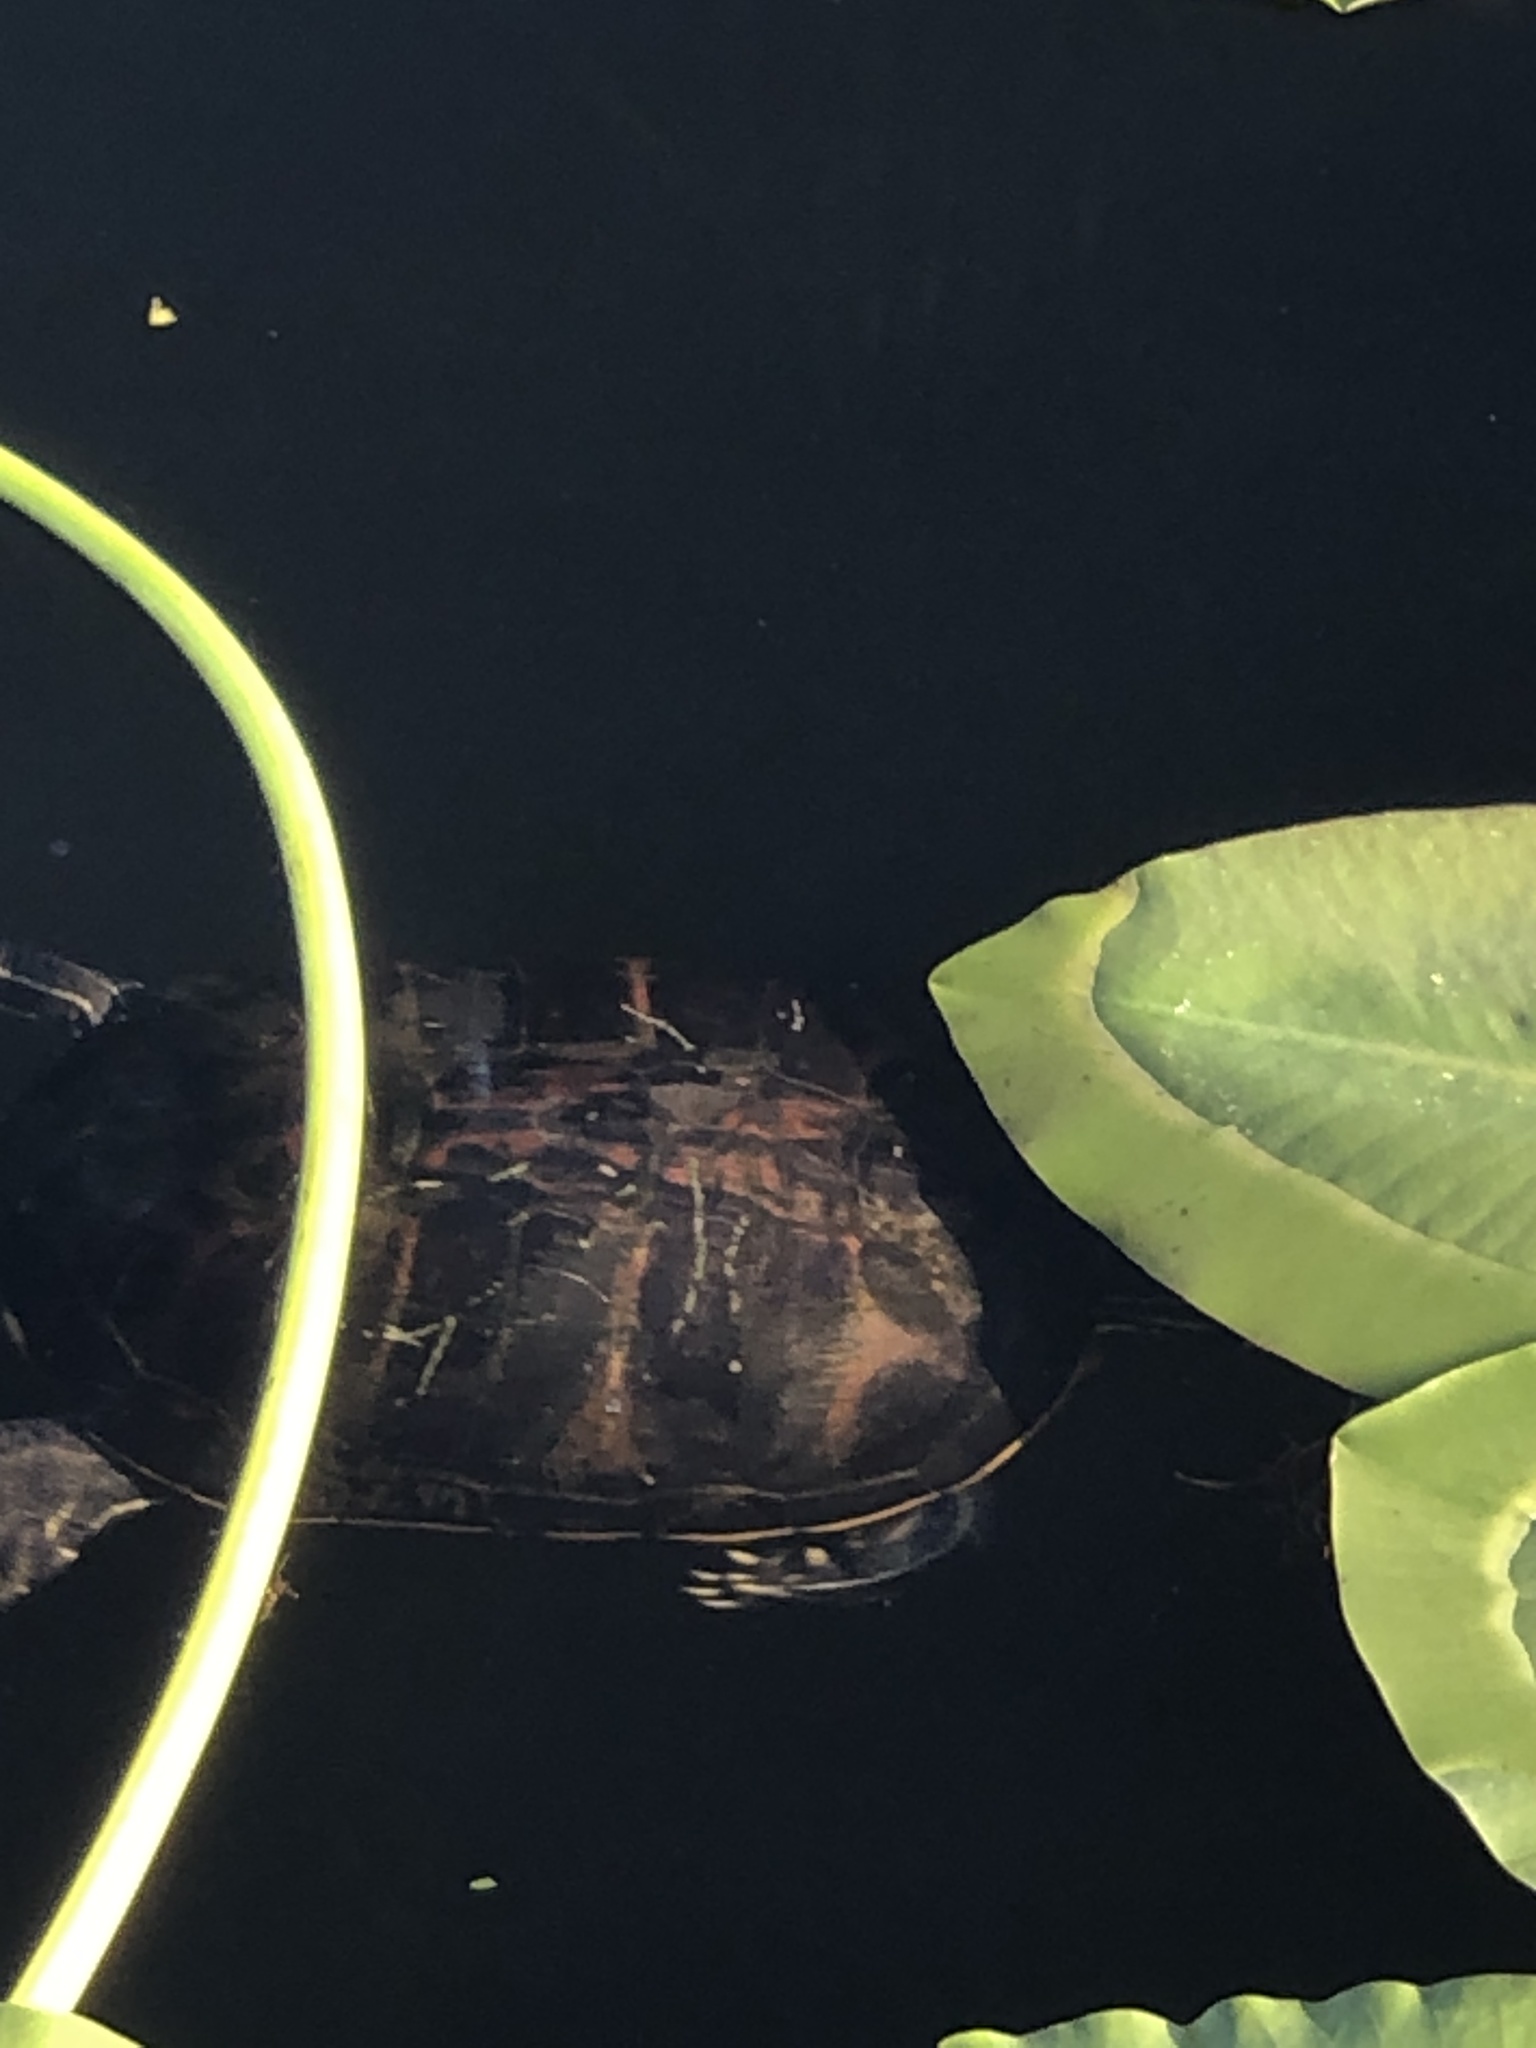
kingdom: Animalia
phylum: Chordata
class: Testudines
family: Emydidae
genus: Pseudemys
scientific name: Pseudemys nelsoni
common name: Florida red-bellied turtle
